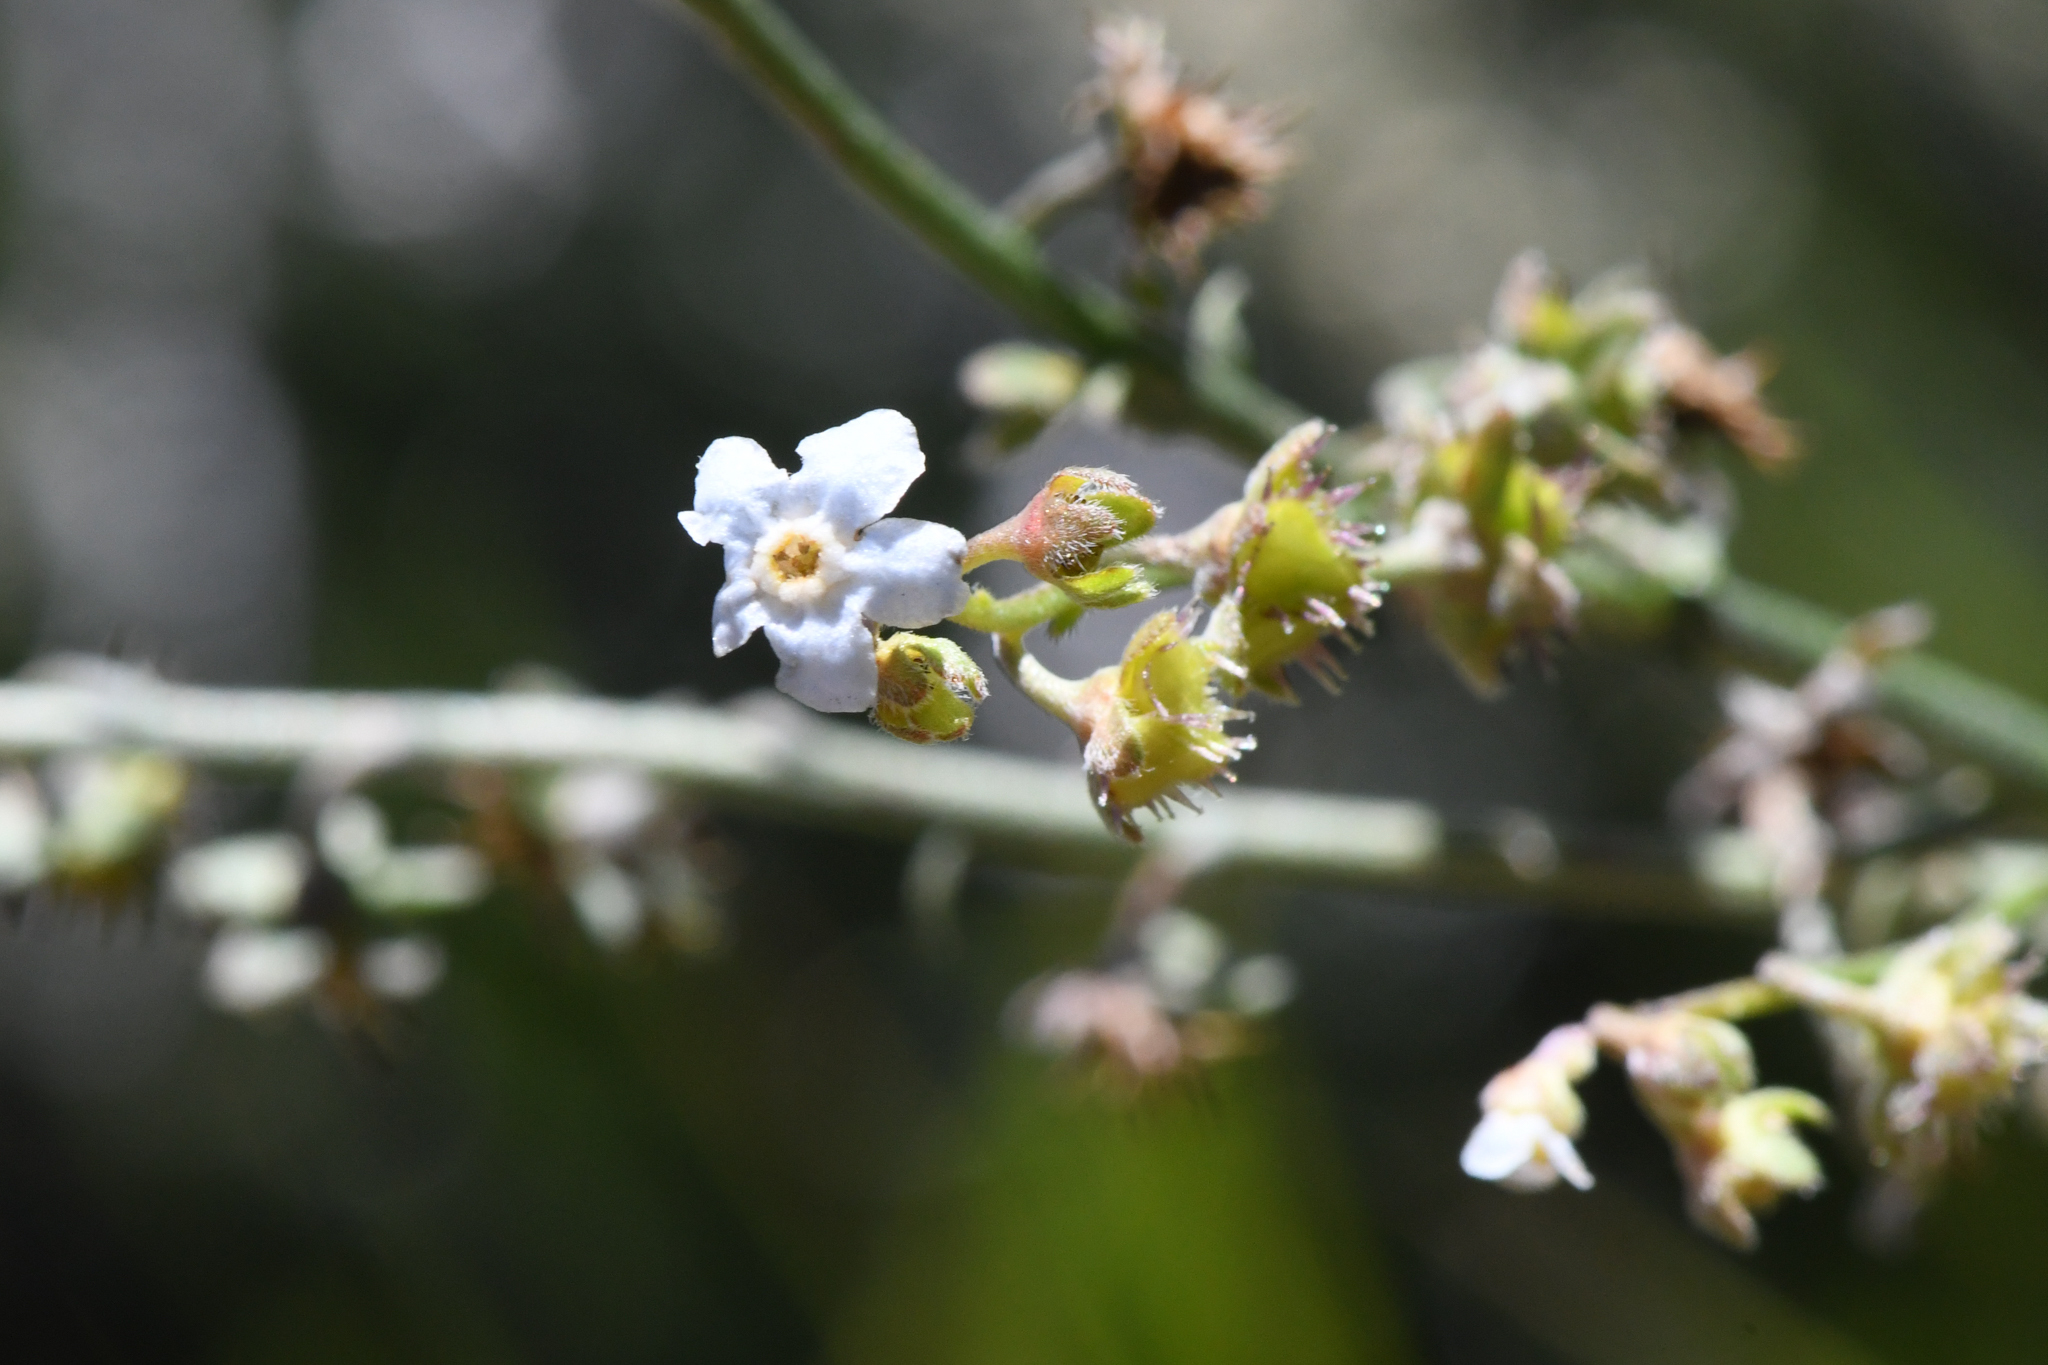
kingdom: Plantae
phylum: Tracheophyta
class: Magnoliopsida
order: Boraginales
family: Boraginaceae
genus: Hackelia
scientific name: Hackelia brevicula
